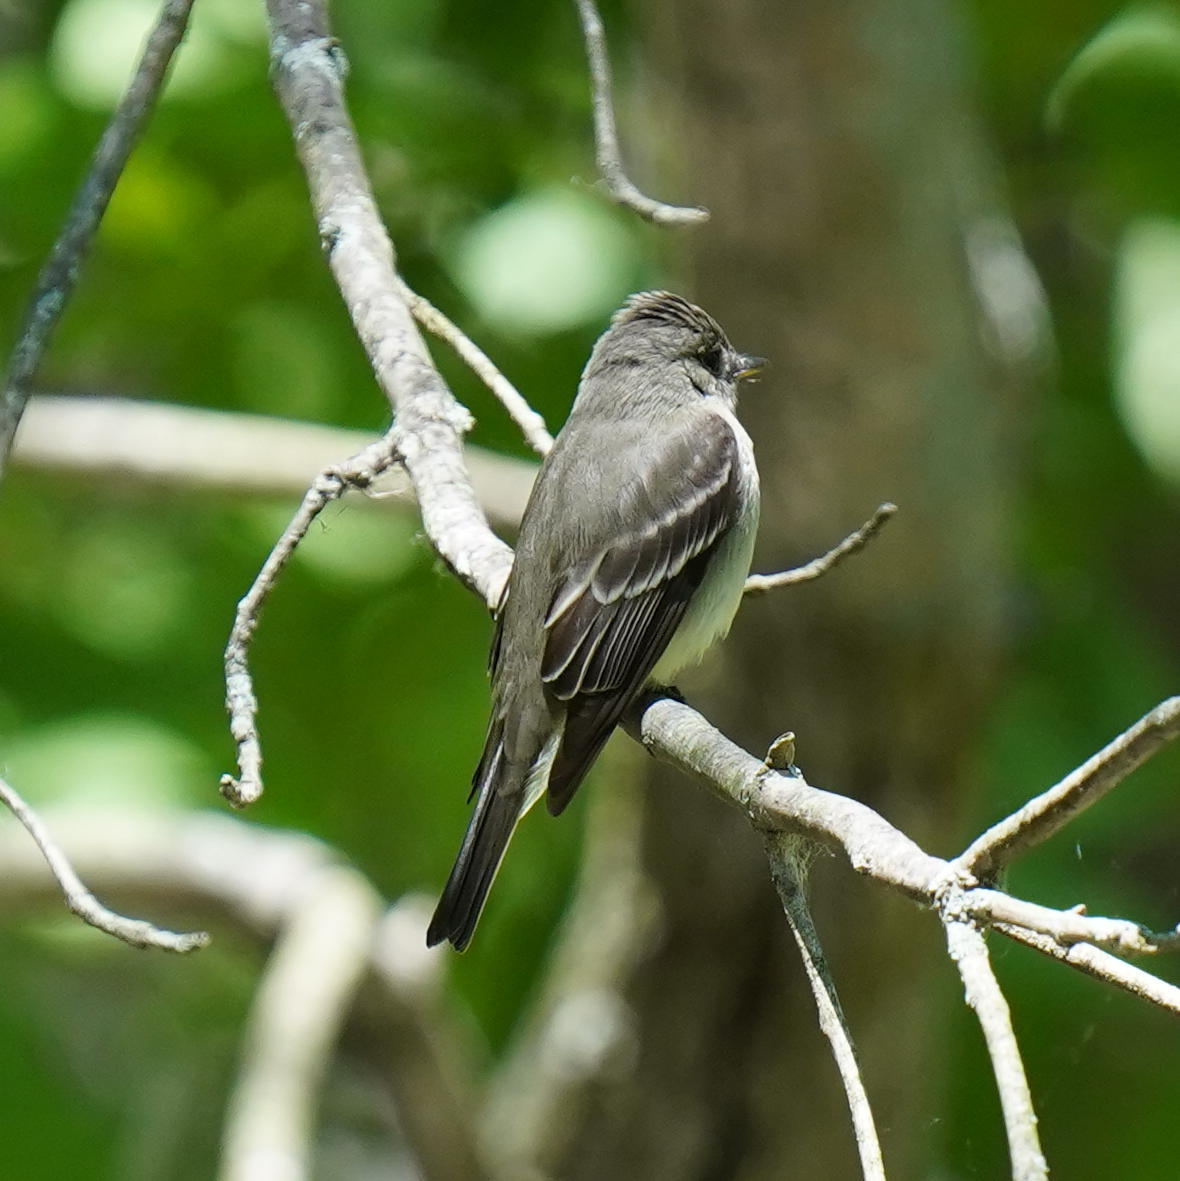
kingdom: Animalia
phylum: Chordata
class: Aves
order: Passeriformes
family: Tyrannidae
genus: Contopus
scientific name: Contopus virens
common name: Eastern wood-pewee
